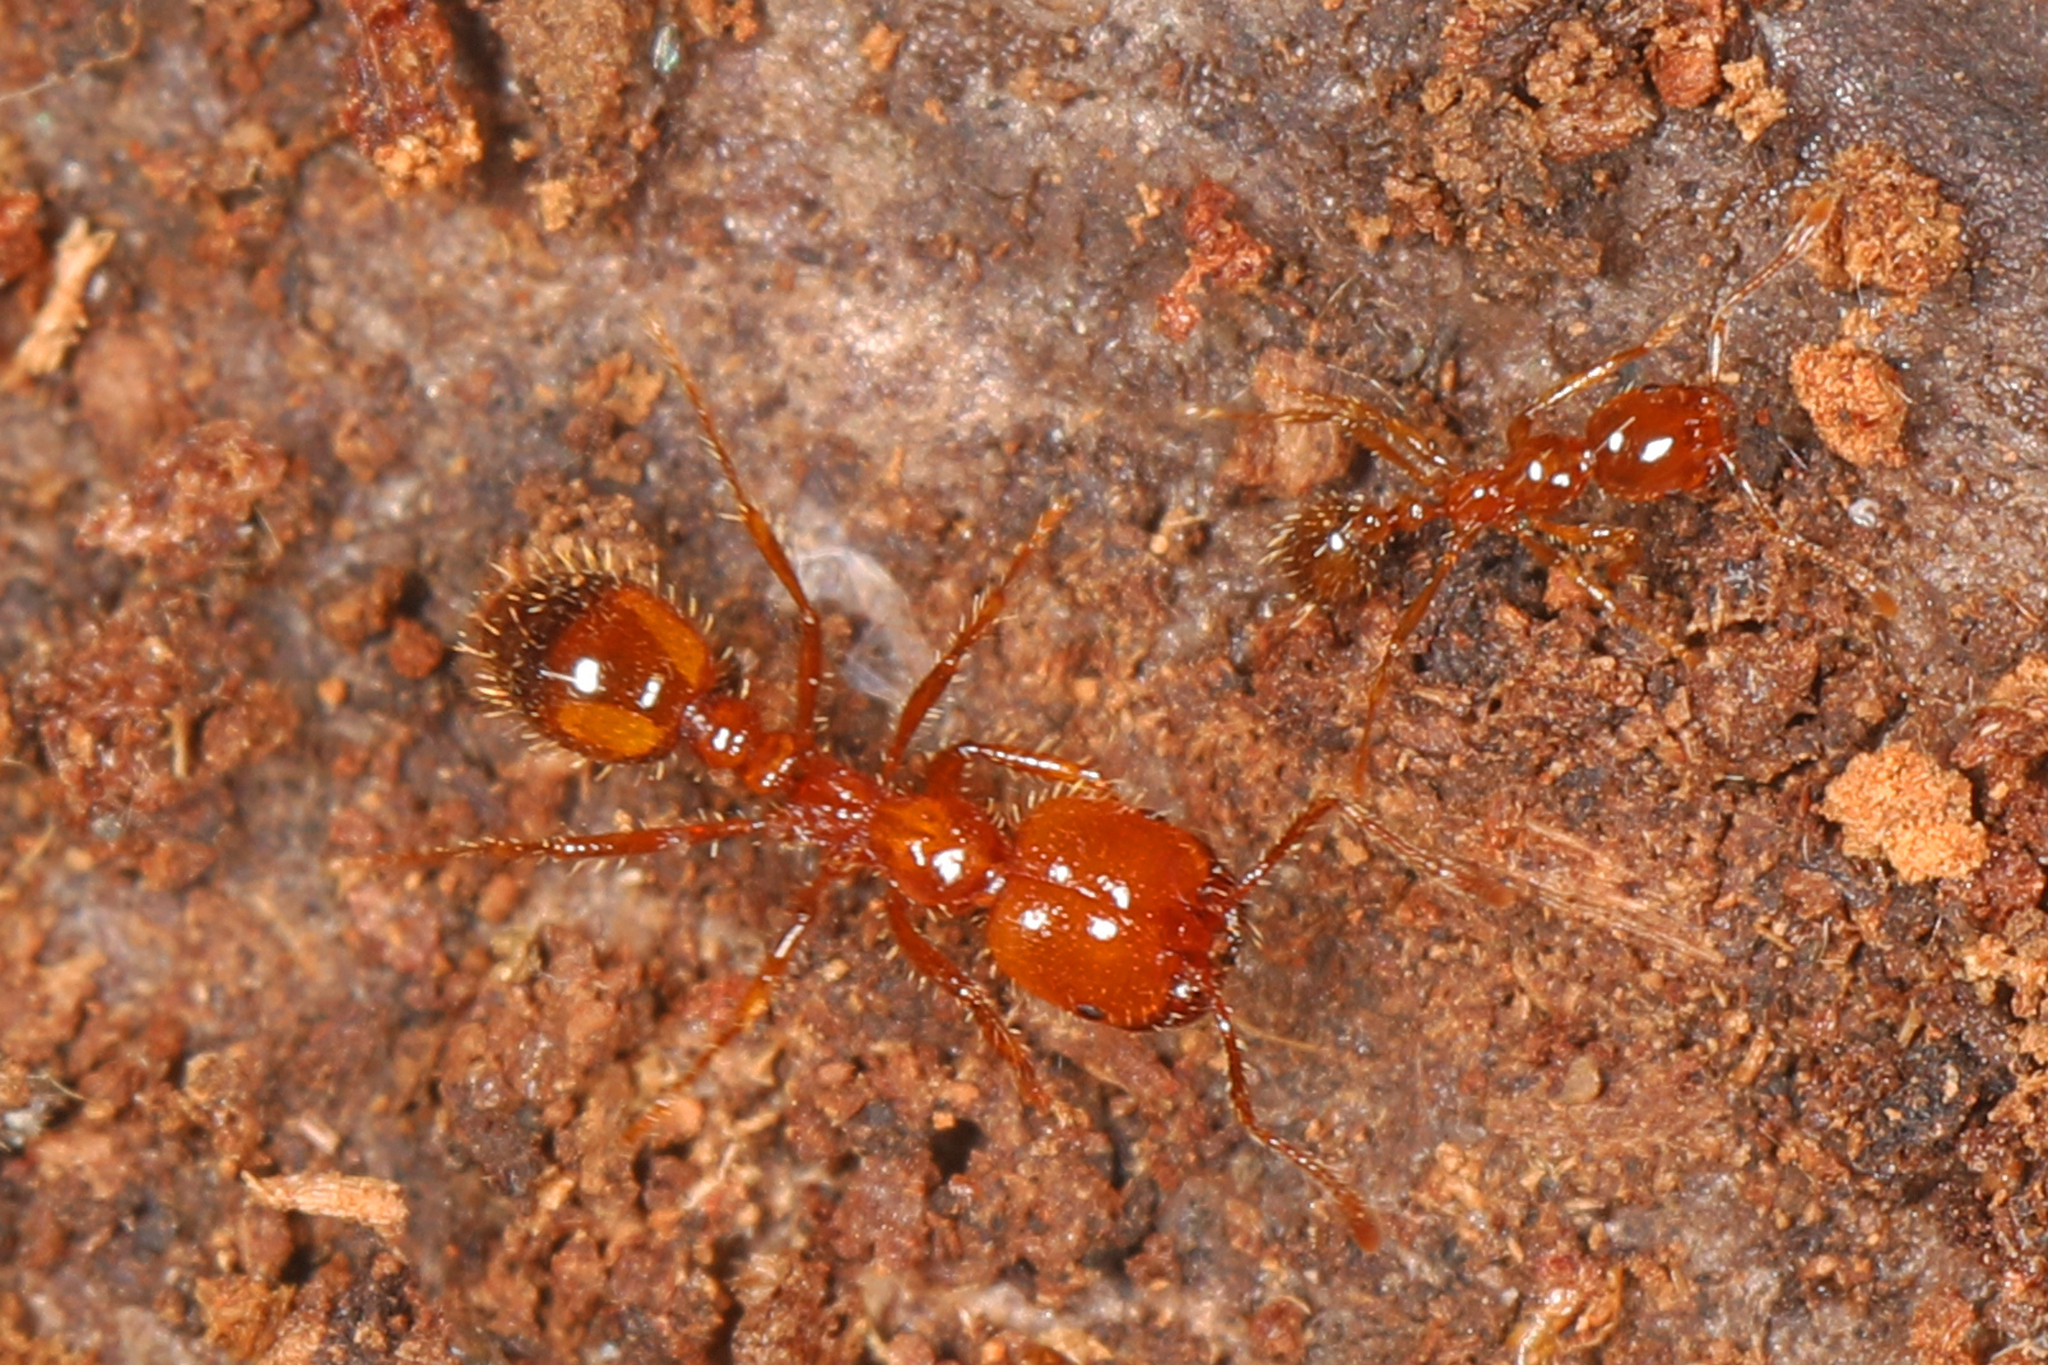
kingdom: Animalia
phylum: Arthropoda
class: Insecta
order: Hymenoptera
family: Formicidae
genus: Solenopsis
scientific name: Solenopsis geminata
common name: Tropical fire ant
